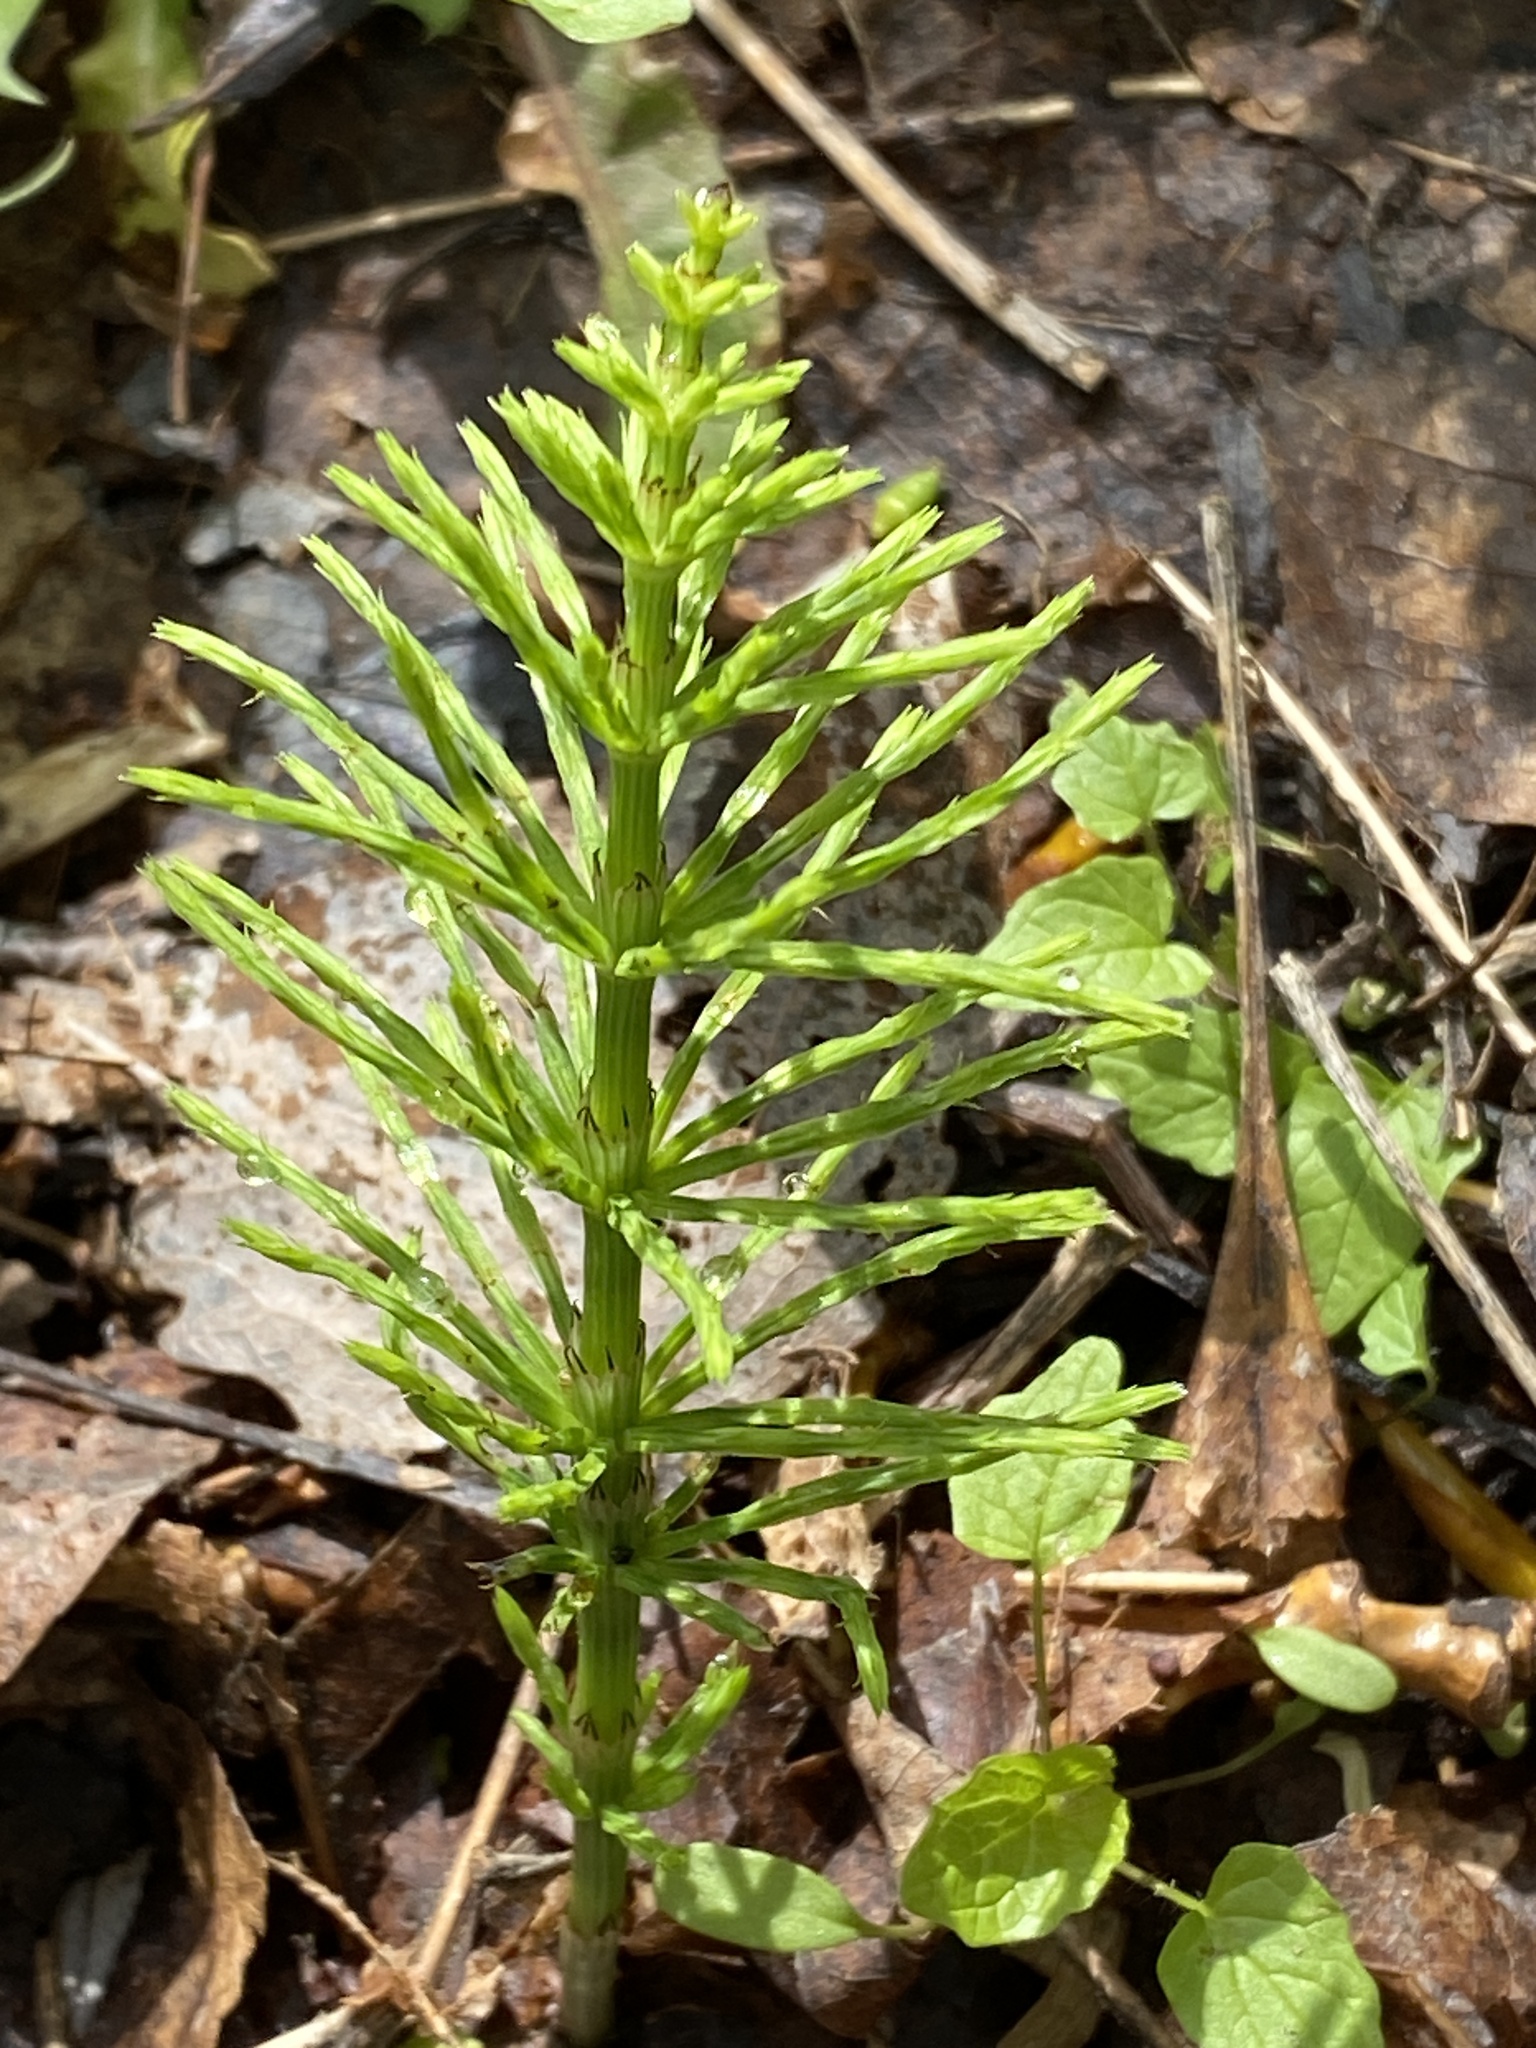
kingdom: Plantae
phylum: Tracheophyta
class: Polypodiopsida
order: Equisetales
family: Equisetaceae
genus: Equisetum
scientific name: Equisetum arvense
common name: Field horsetail
